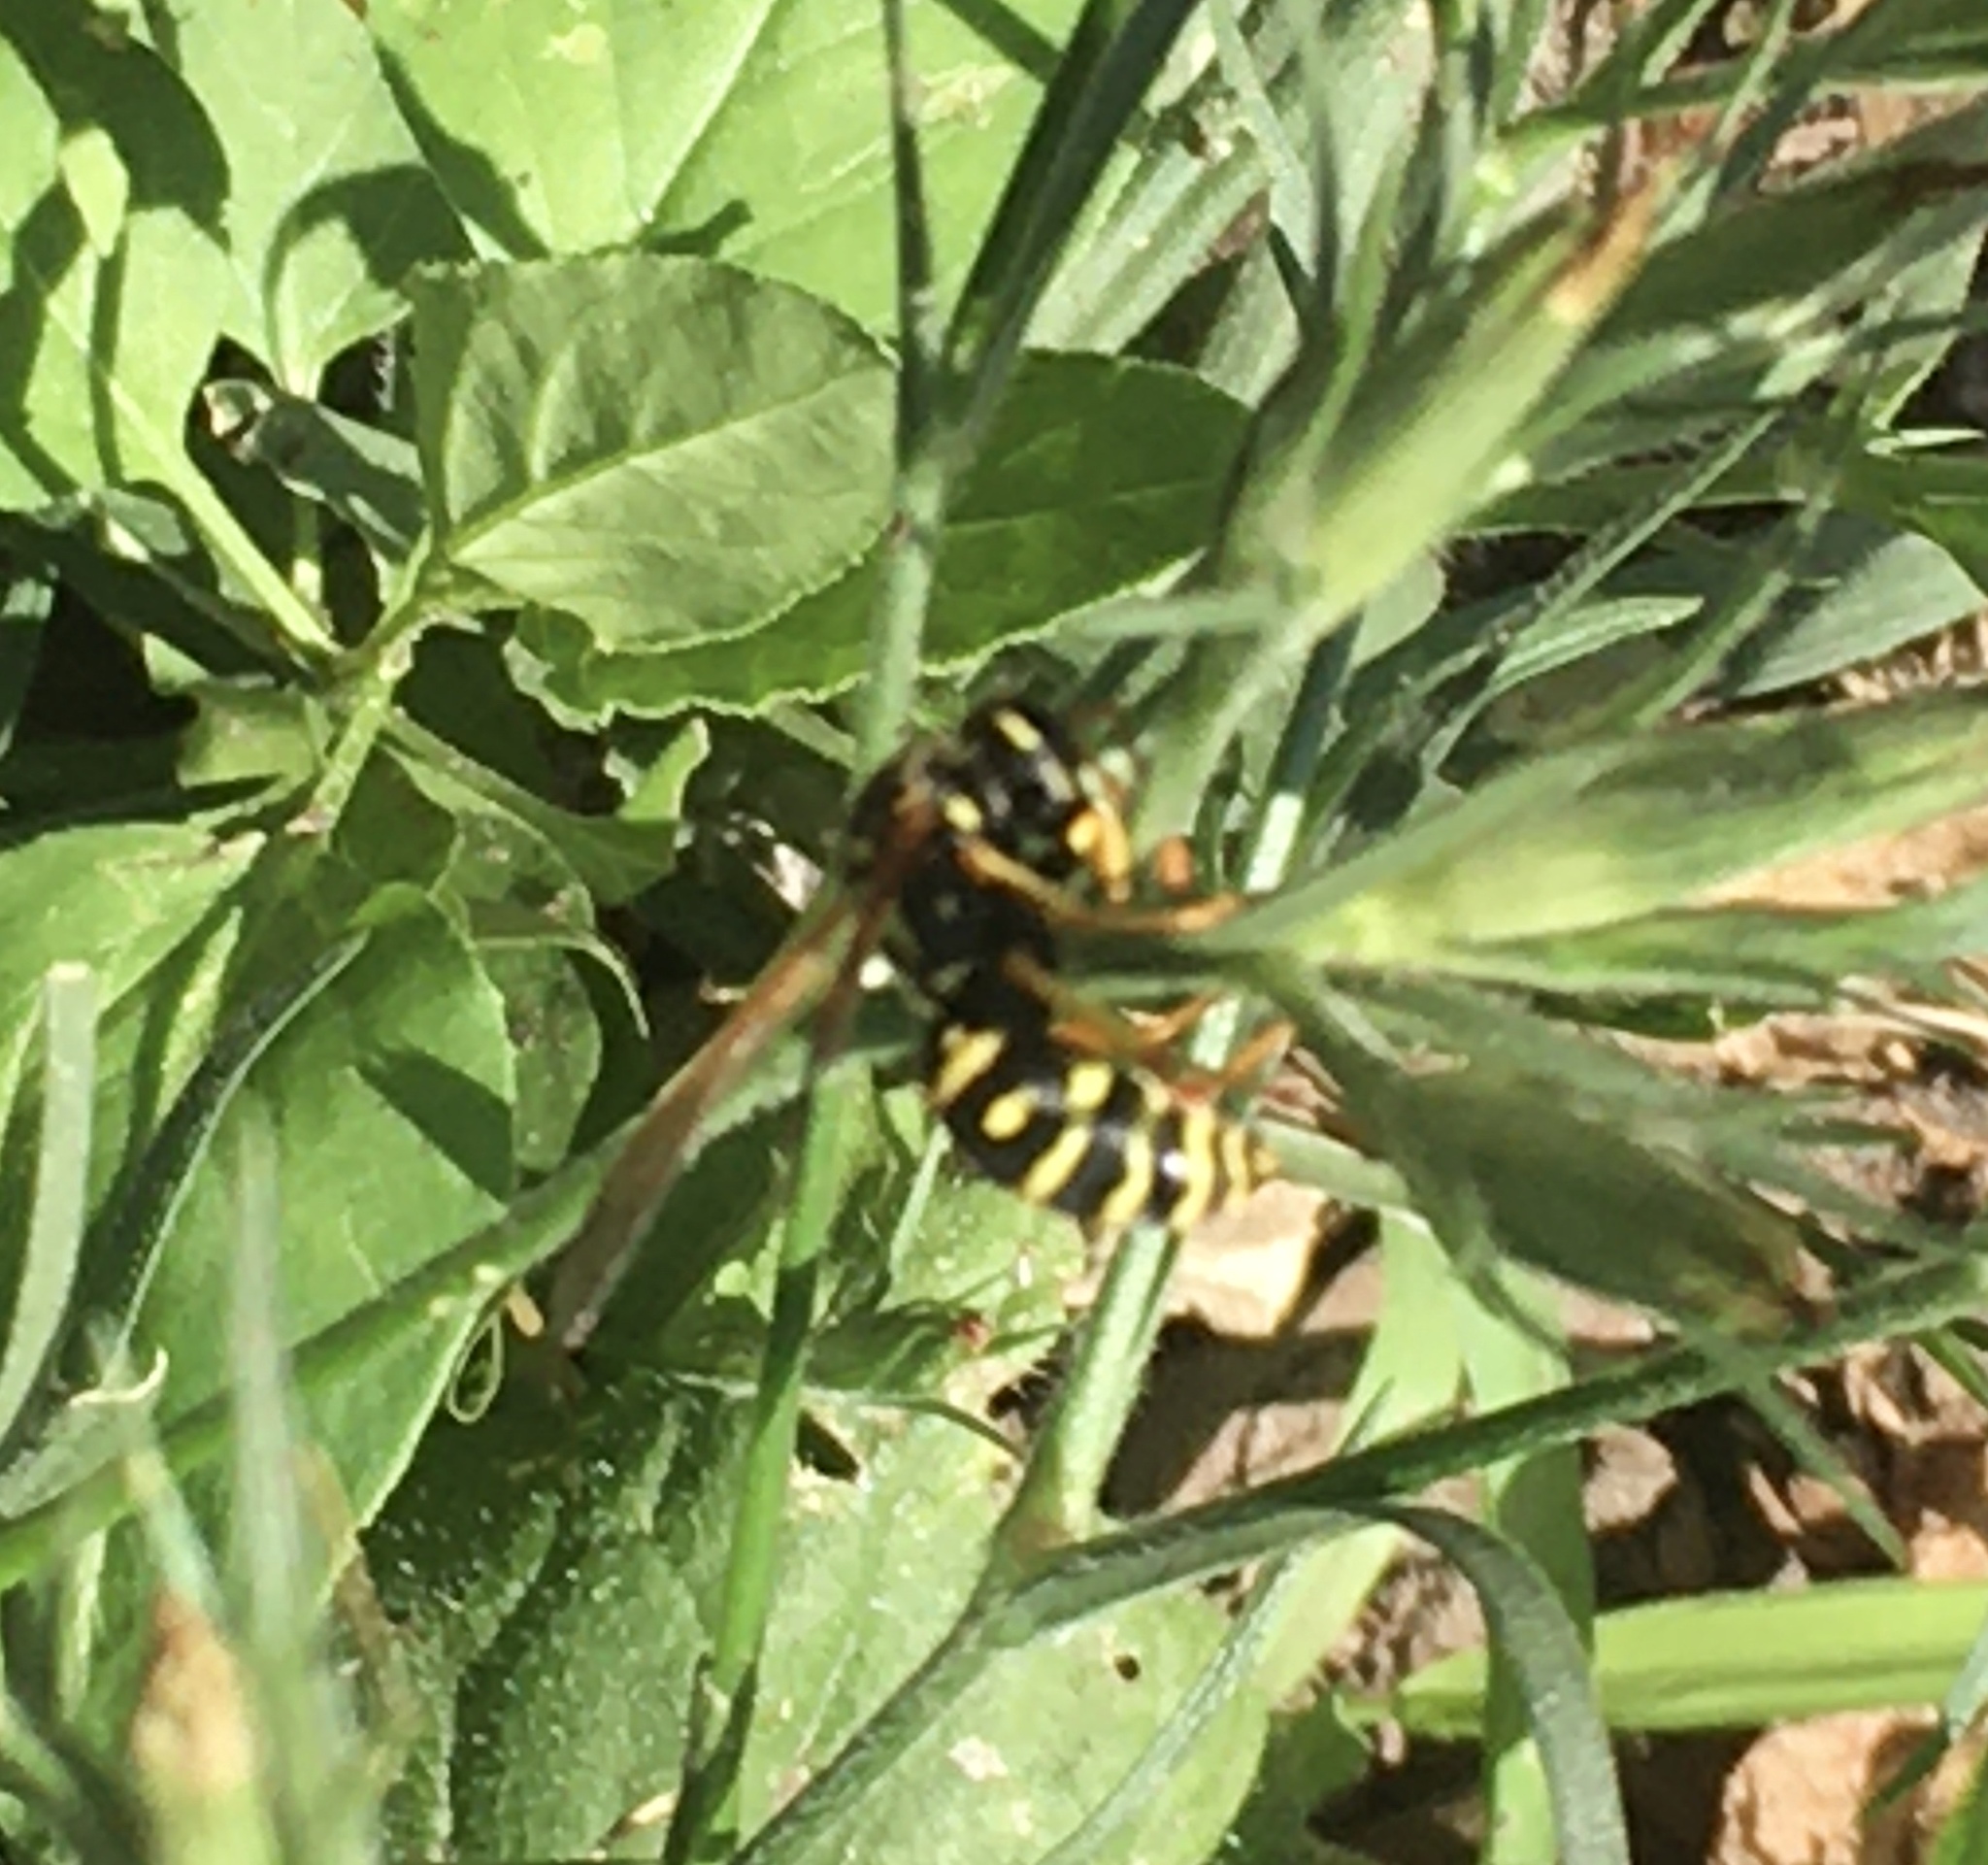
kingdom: Animalia
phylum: Arthropoda
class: Insecta
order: Hymenoptera
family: Eumenidae
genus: Polistes
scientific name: Polistes dominula
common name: Paper wasp
